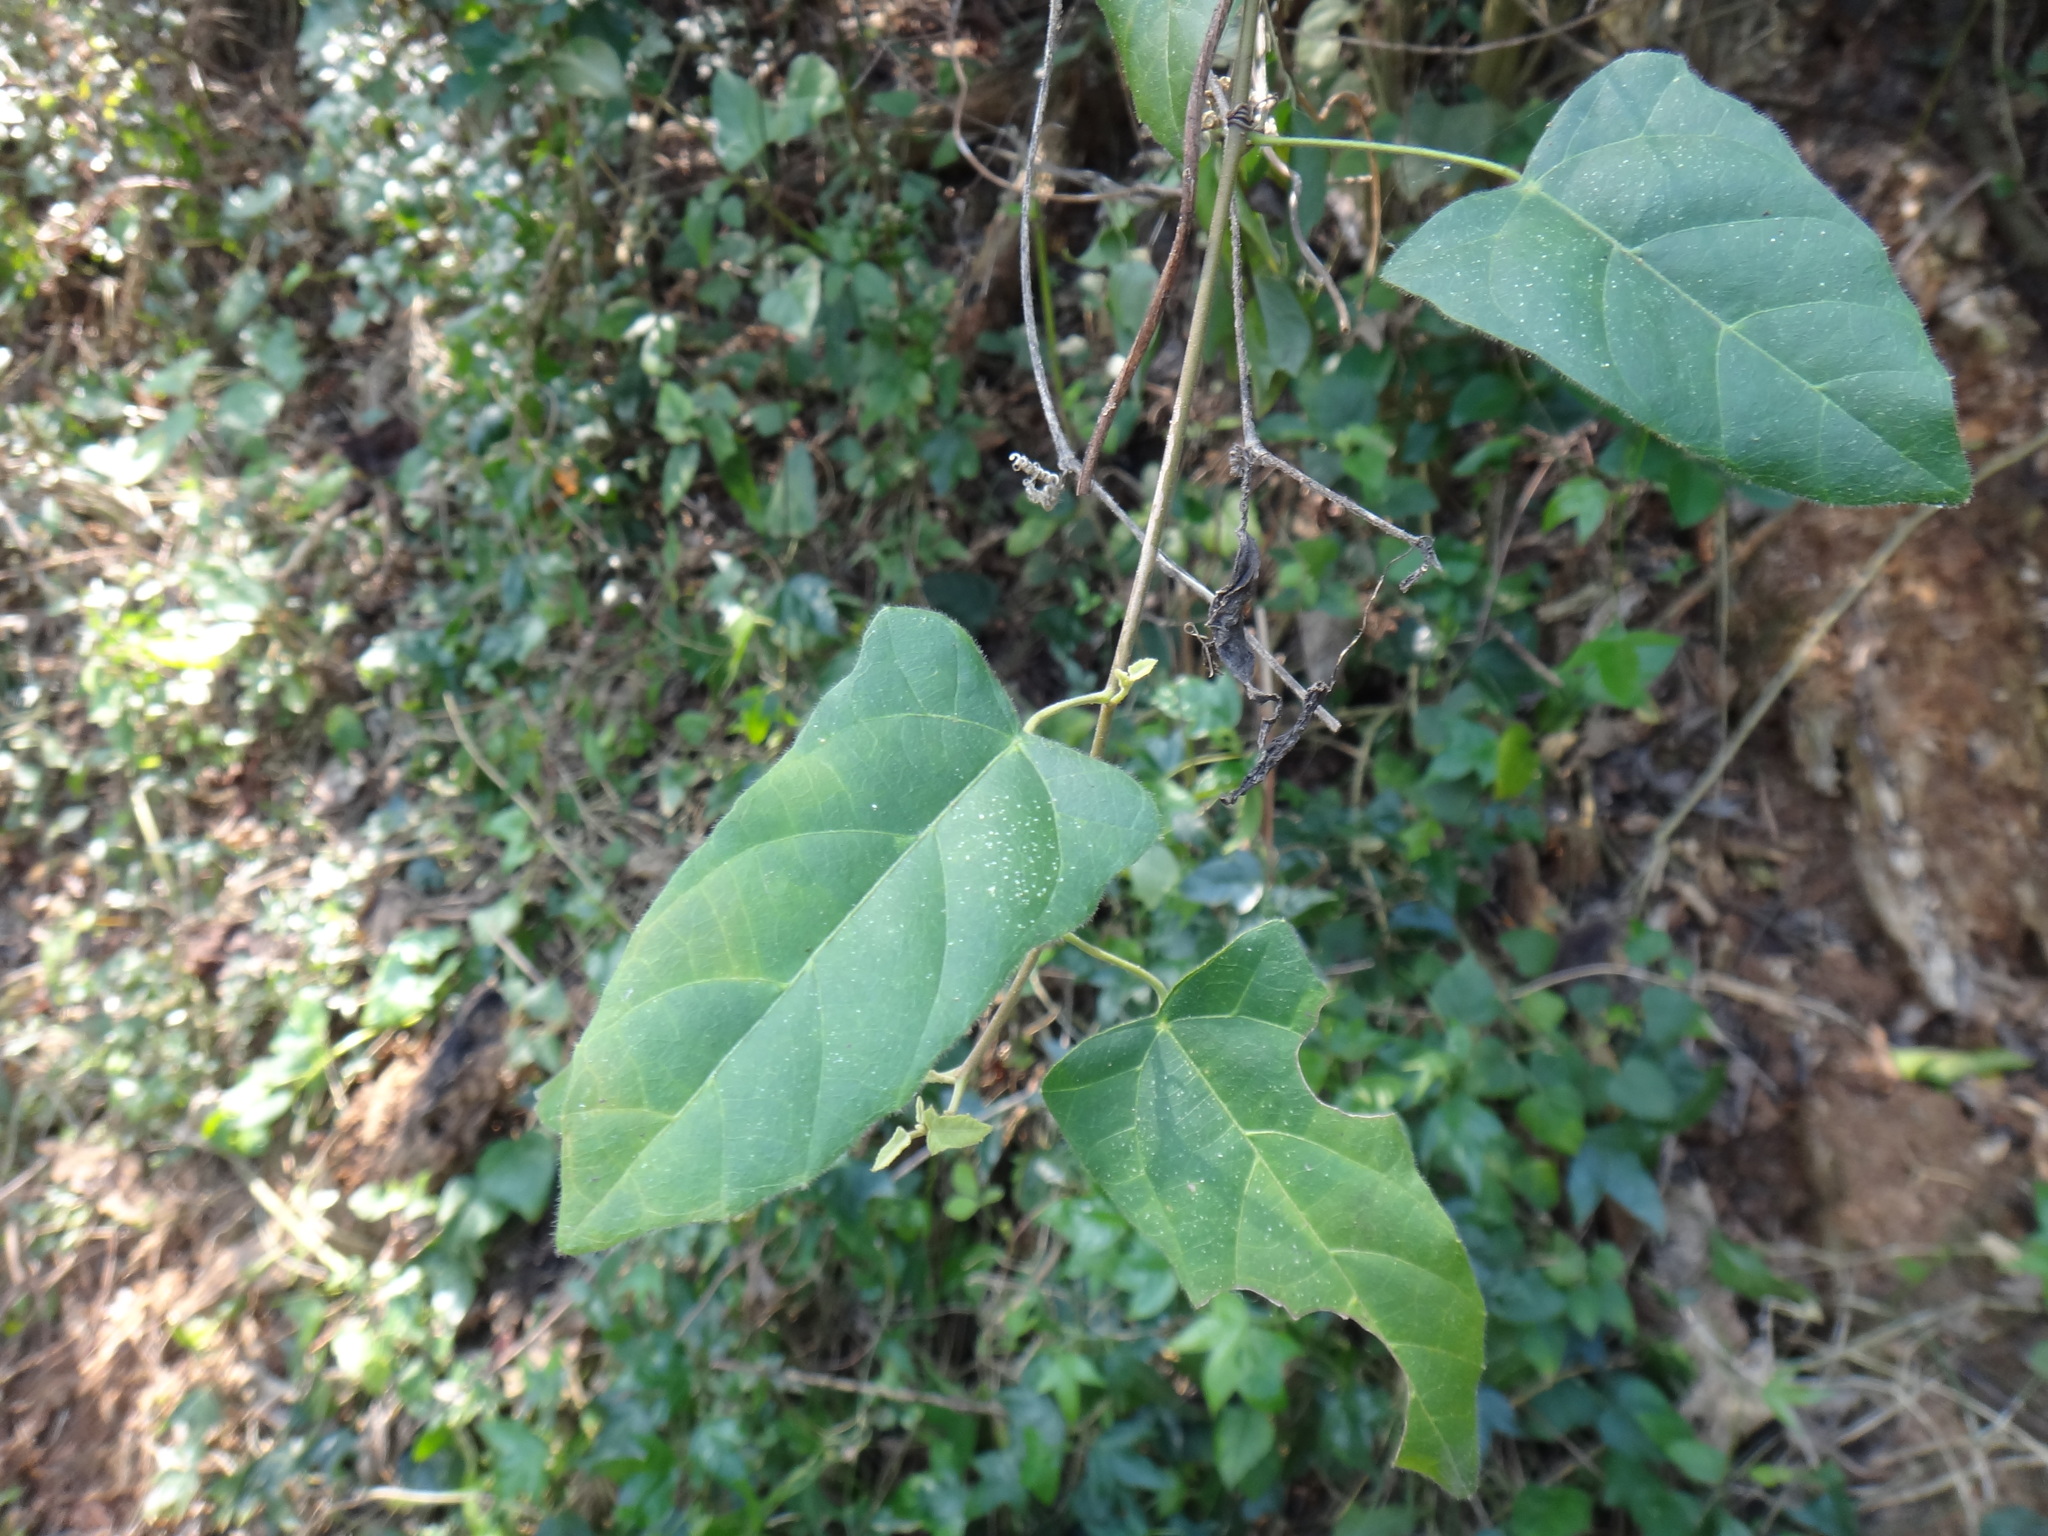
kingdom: Plantae
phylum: Tracheophyta
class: Magnoliopsida
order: Malpighiales
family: Euphorbiaceae
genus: Mallotus
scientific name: Mallotus repandus
